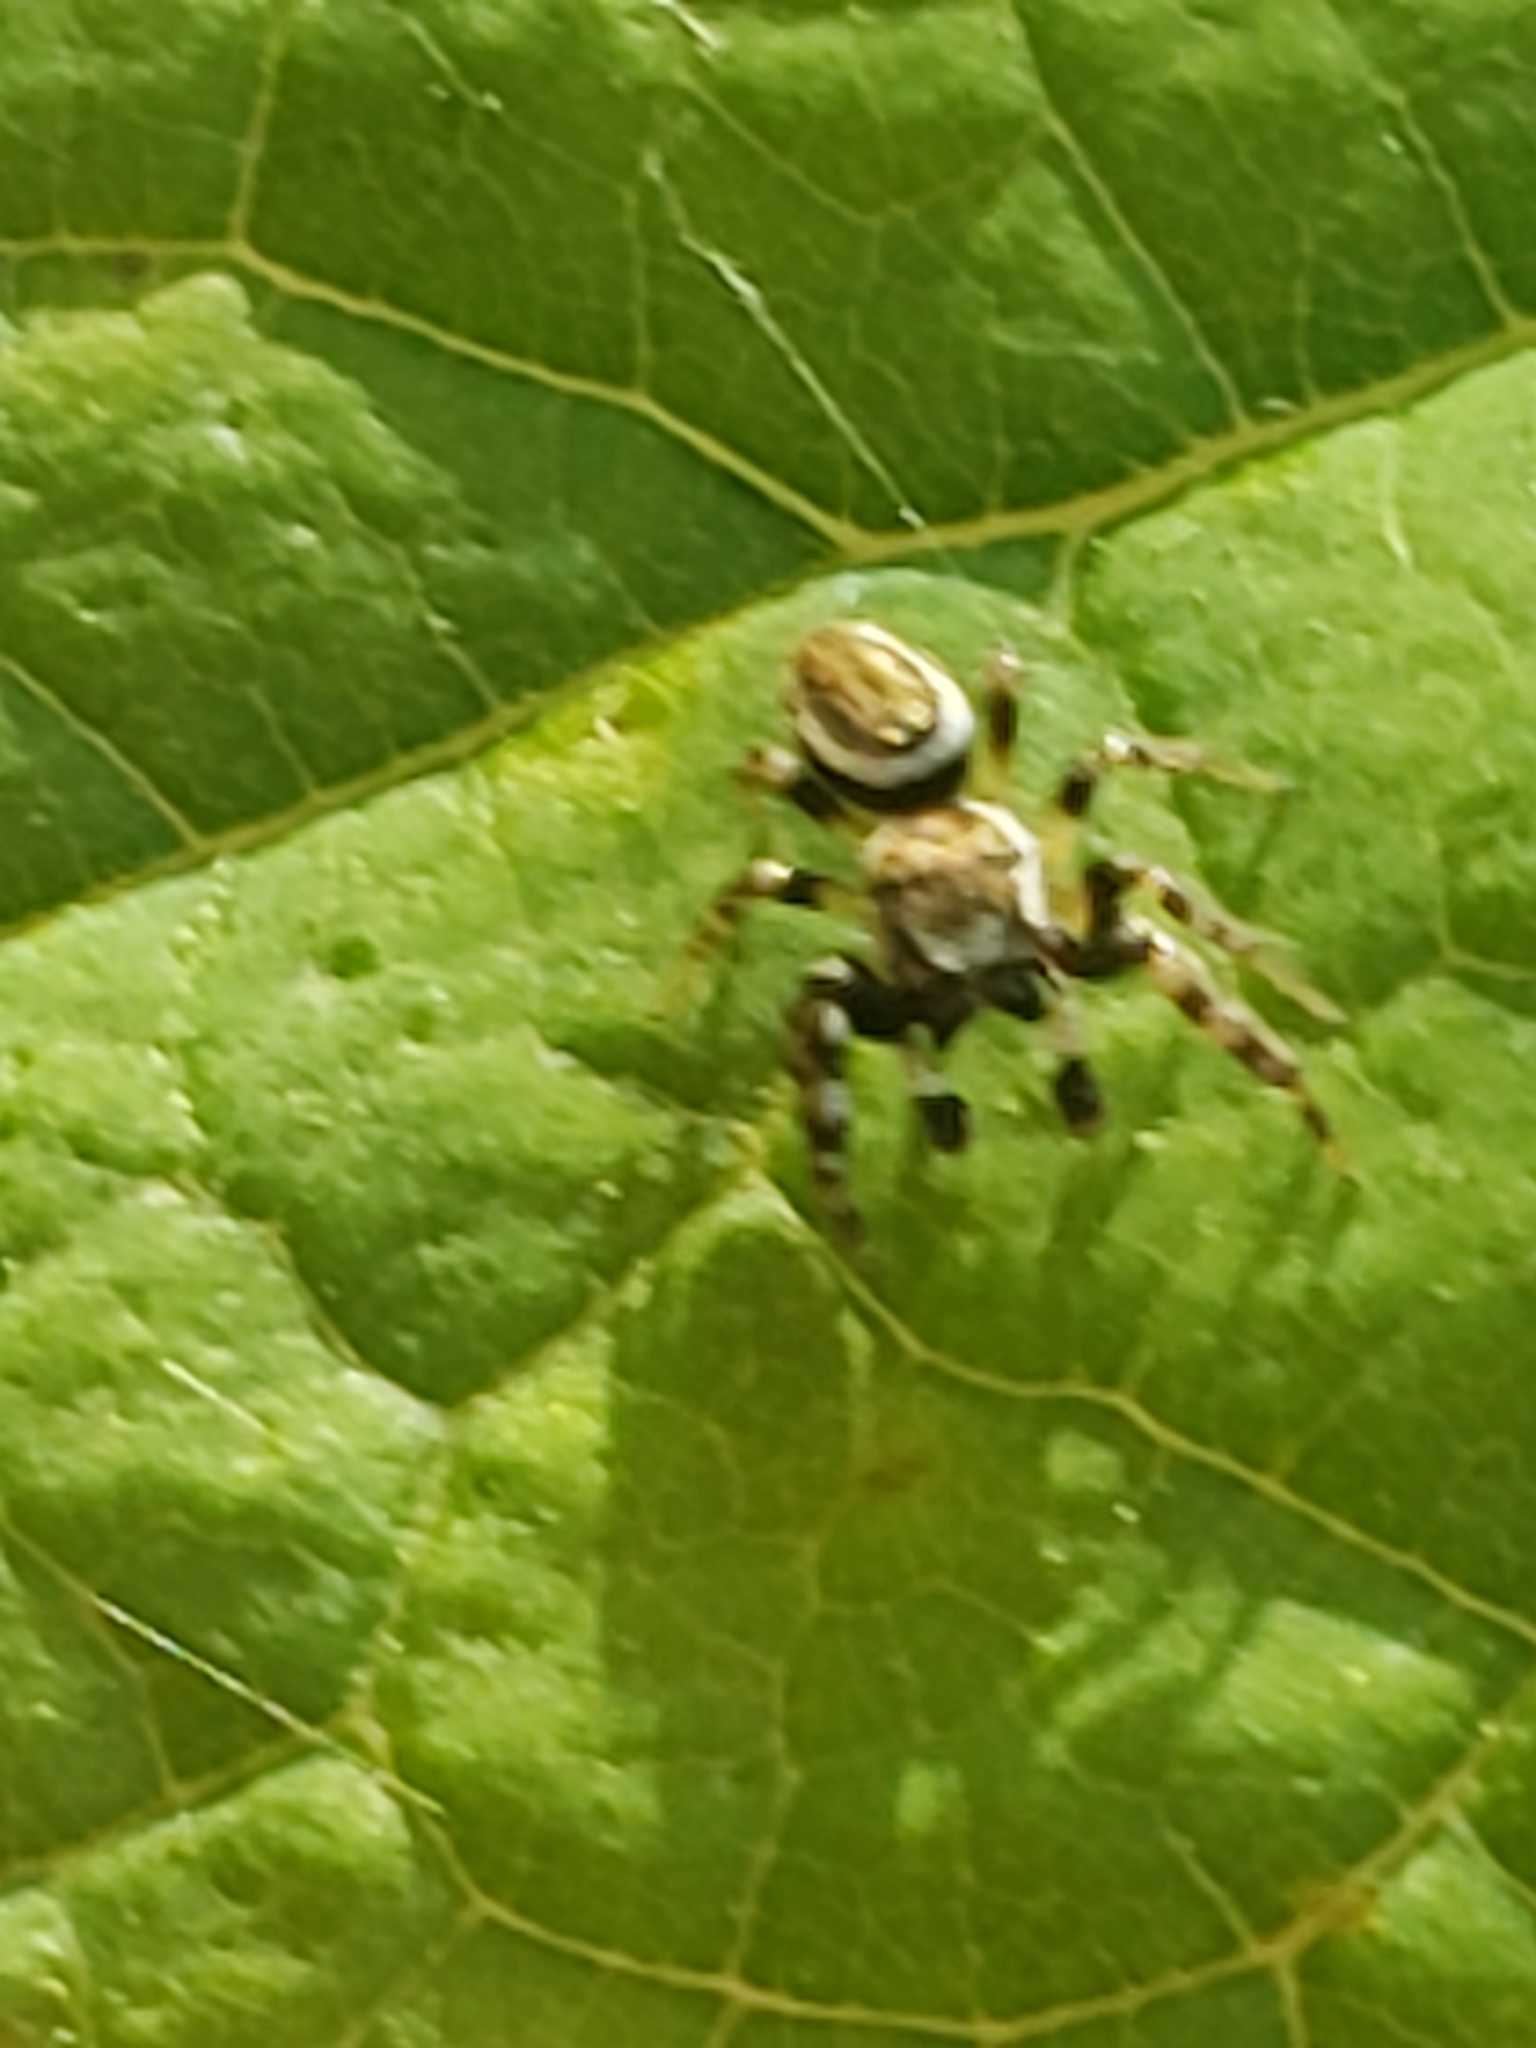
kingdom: Animalia
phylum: Arthropoda
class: Arachnida
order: Araneae
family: Salticidae
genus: Pelegrina
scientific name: Pelegrina proterva
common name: Common white-cheeked jumping spider
